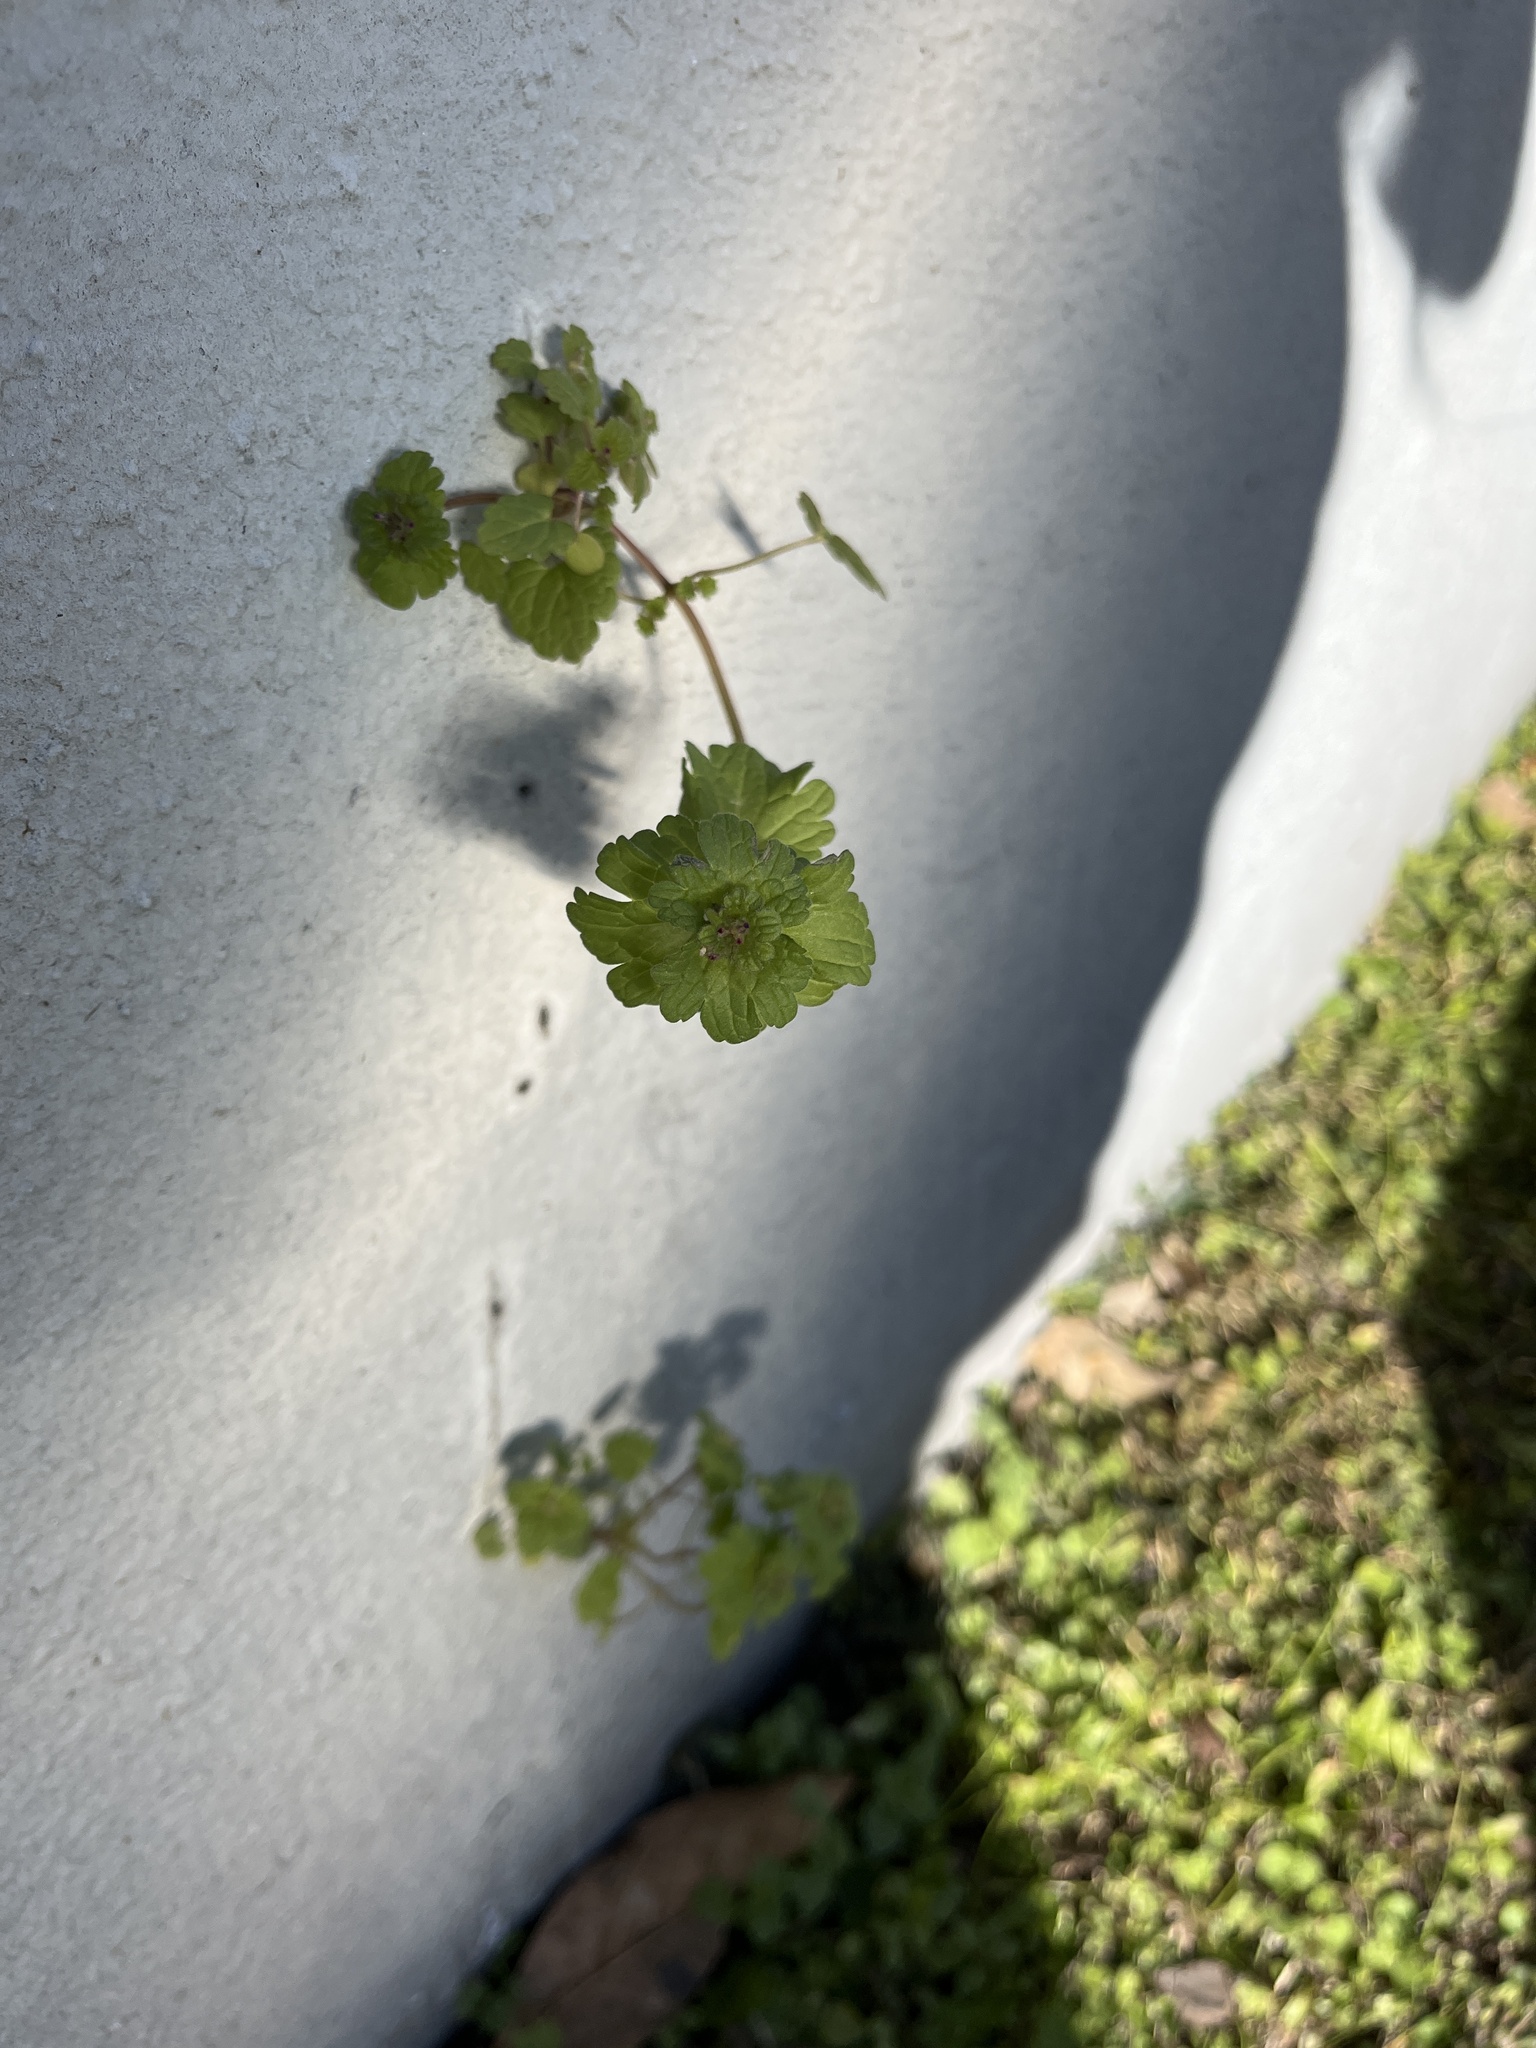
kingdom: Plantae
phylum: Tracheophyta
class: Magnoliopsida
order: Lamiales
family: Lamiaceae
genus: Lamium
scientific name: Lamium amplexicaule
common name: Henbit dead-nettle
